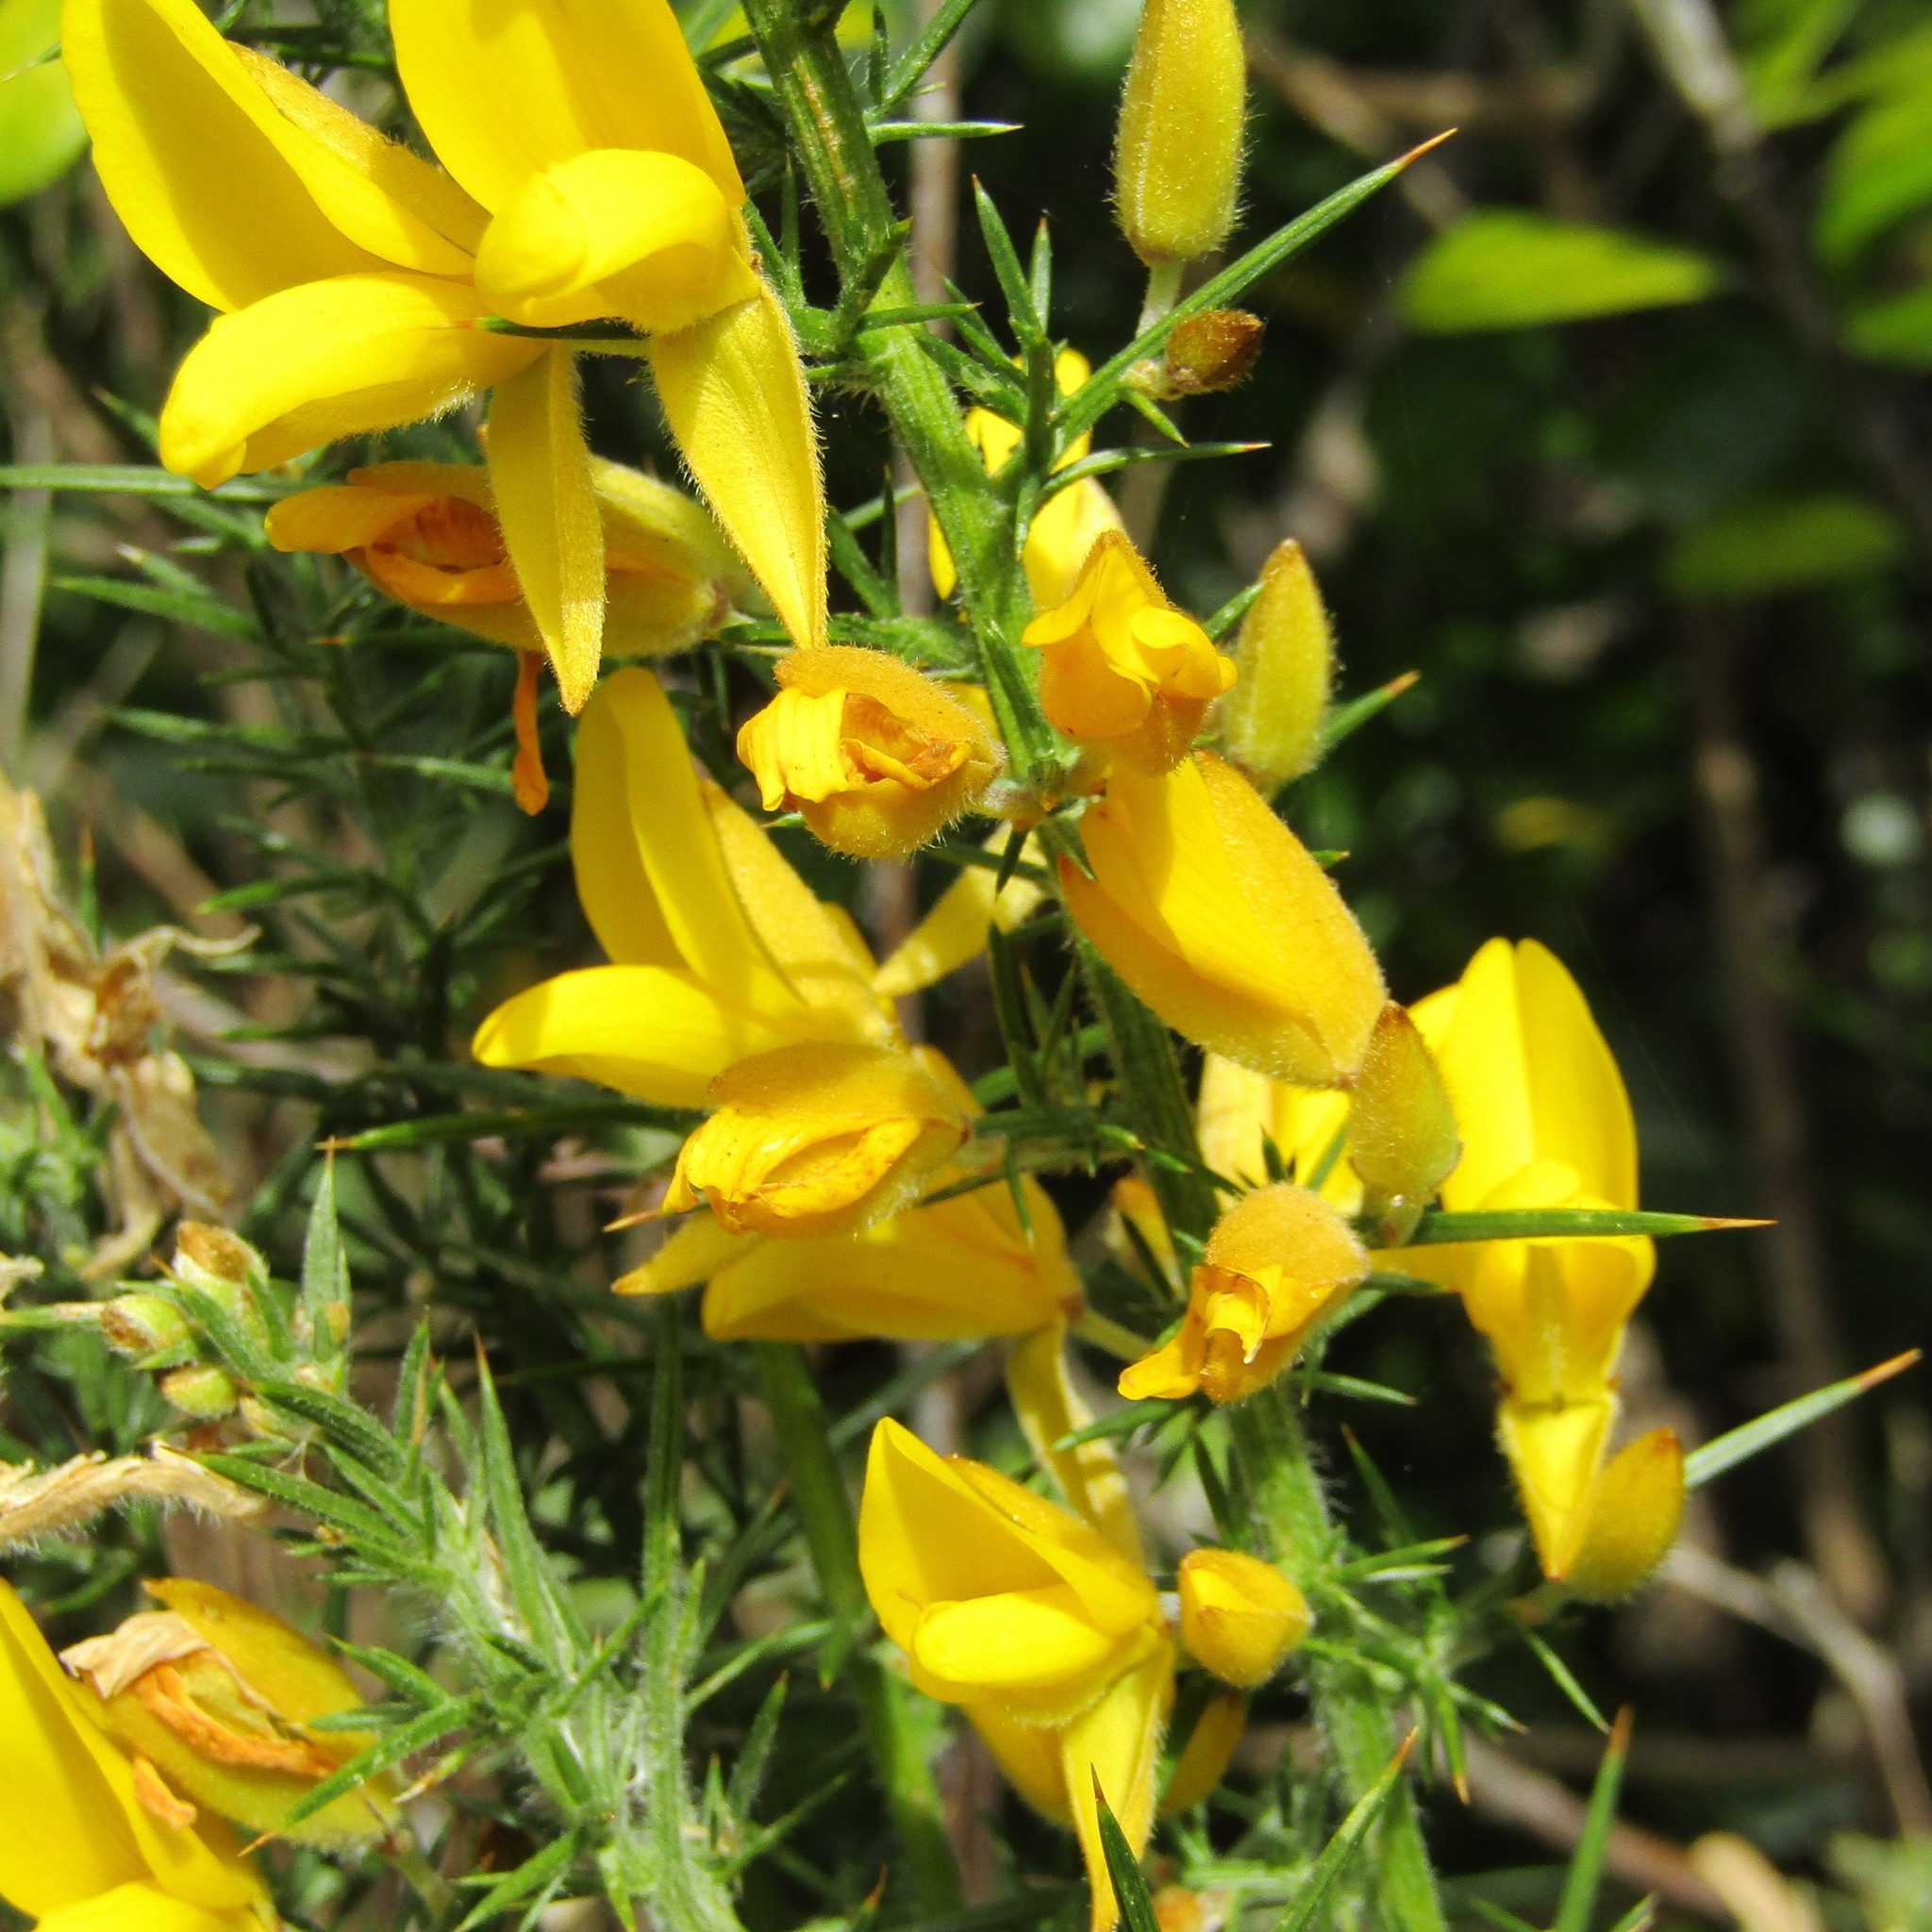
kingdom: Plantae
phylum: Tracheophyta
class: Magnoliopsida
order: Fabales
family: Fabaceae
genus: Ulex
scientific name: Ulex europaeus
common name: Common gorse
